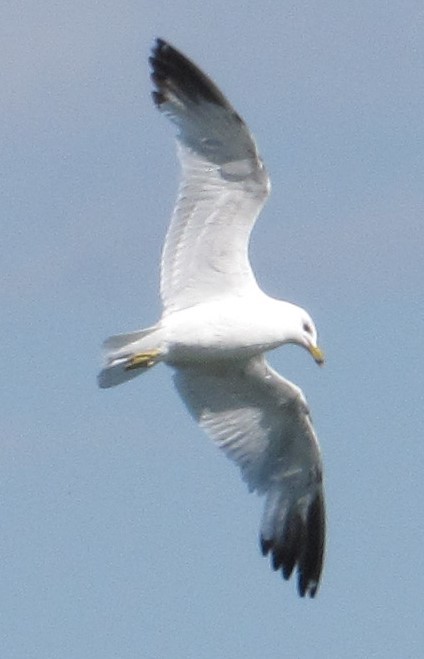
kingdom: Animalia
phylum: Chordata
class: Aves
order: Charadriiformes
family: Laridae
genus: Larus
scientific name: Larus delawarensis
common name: Ring-billed gull
